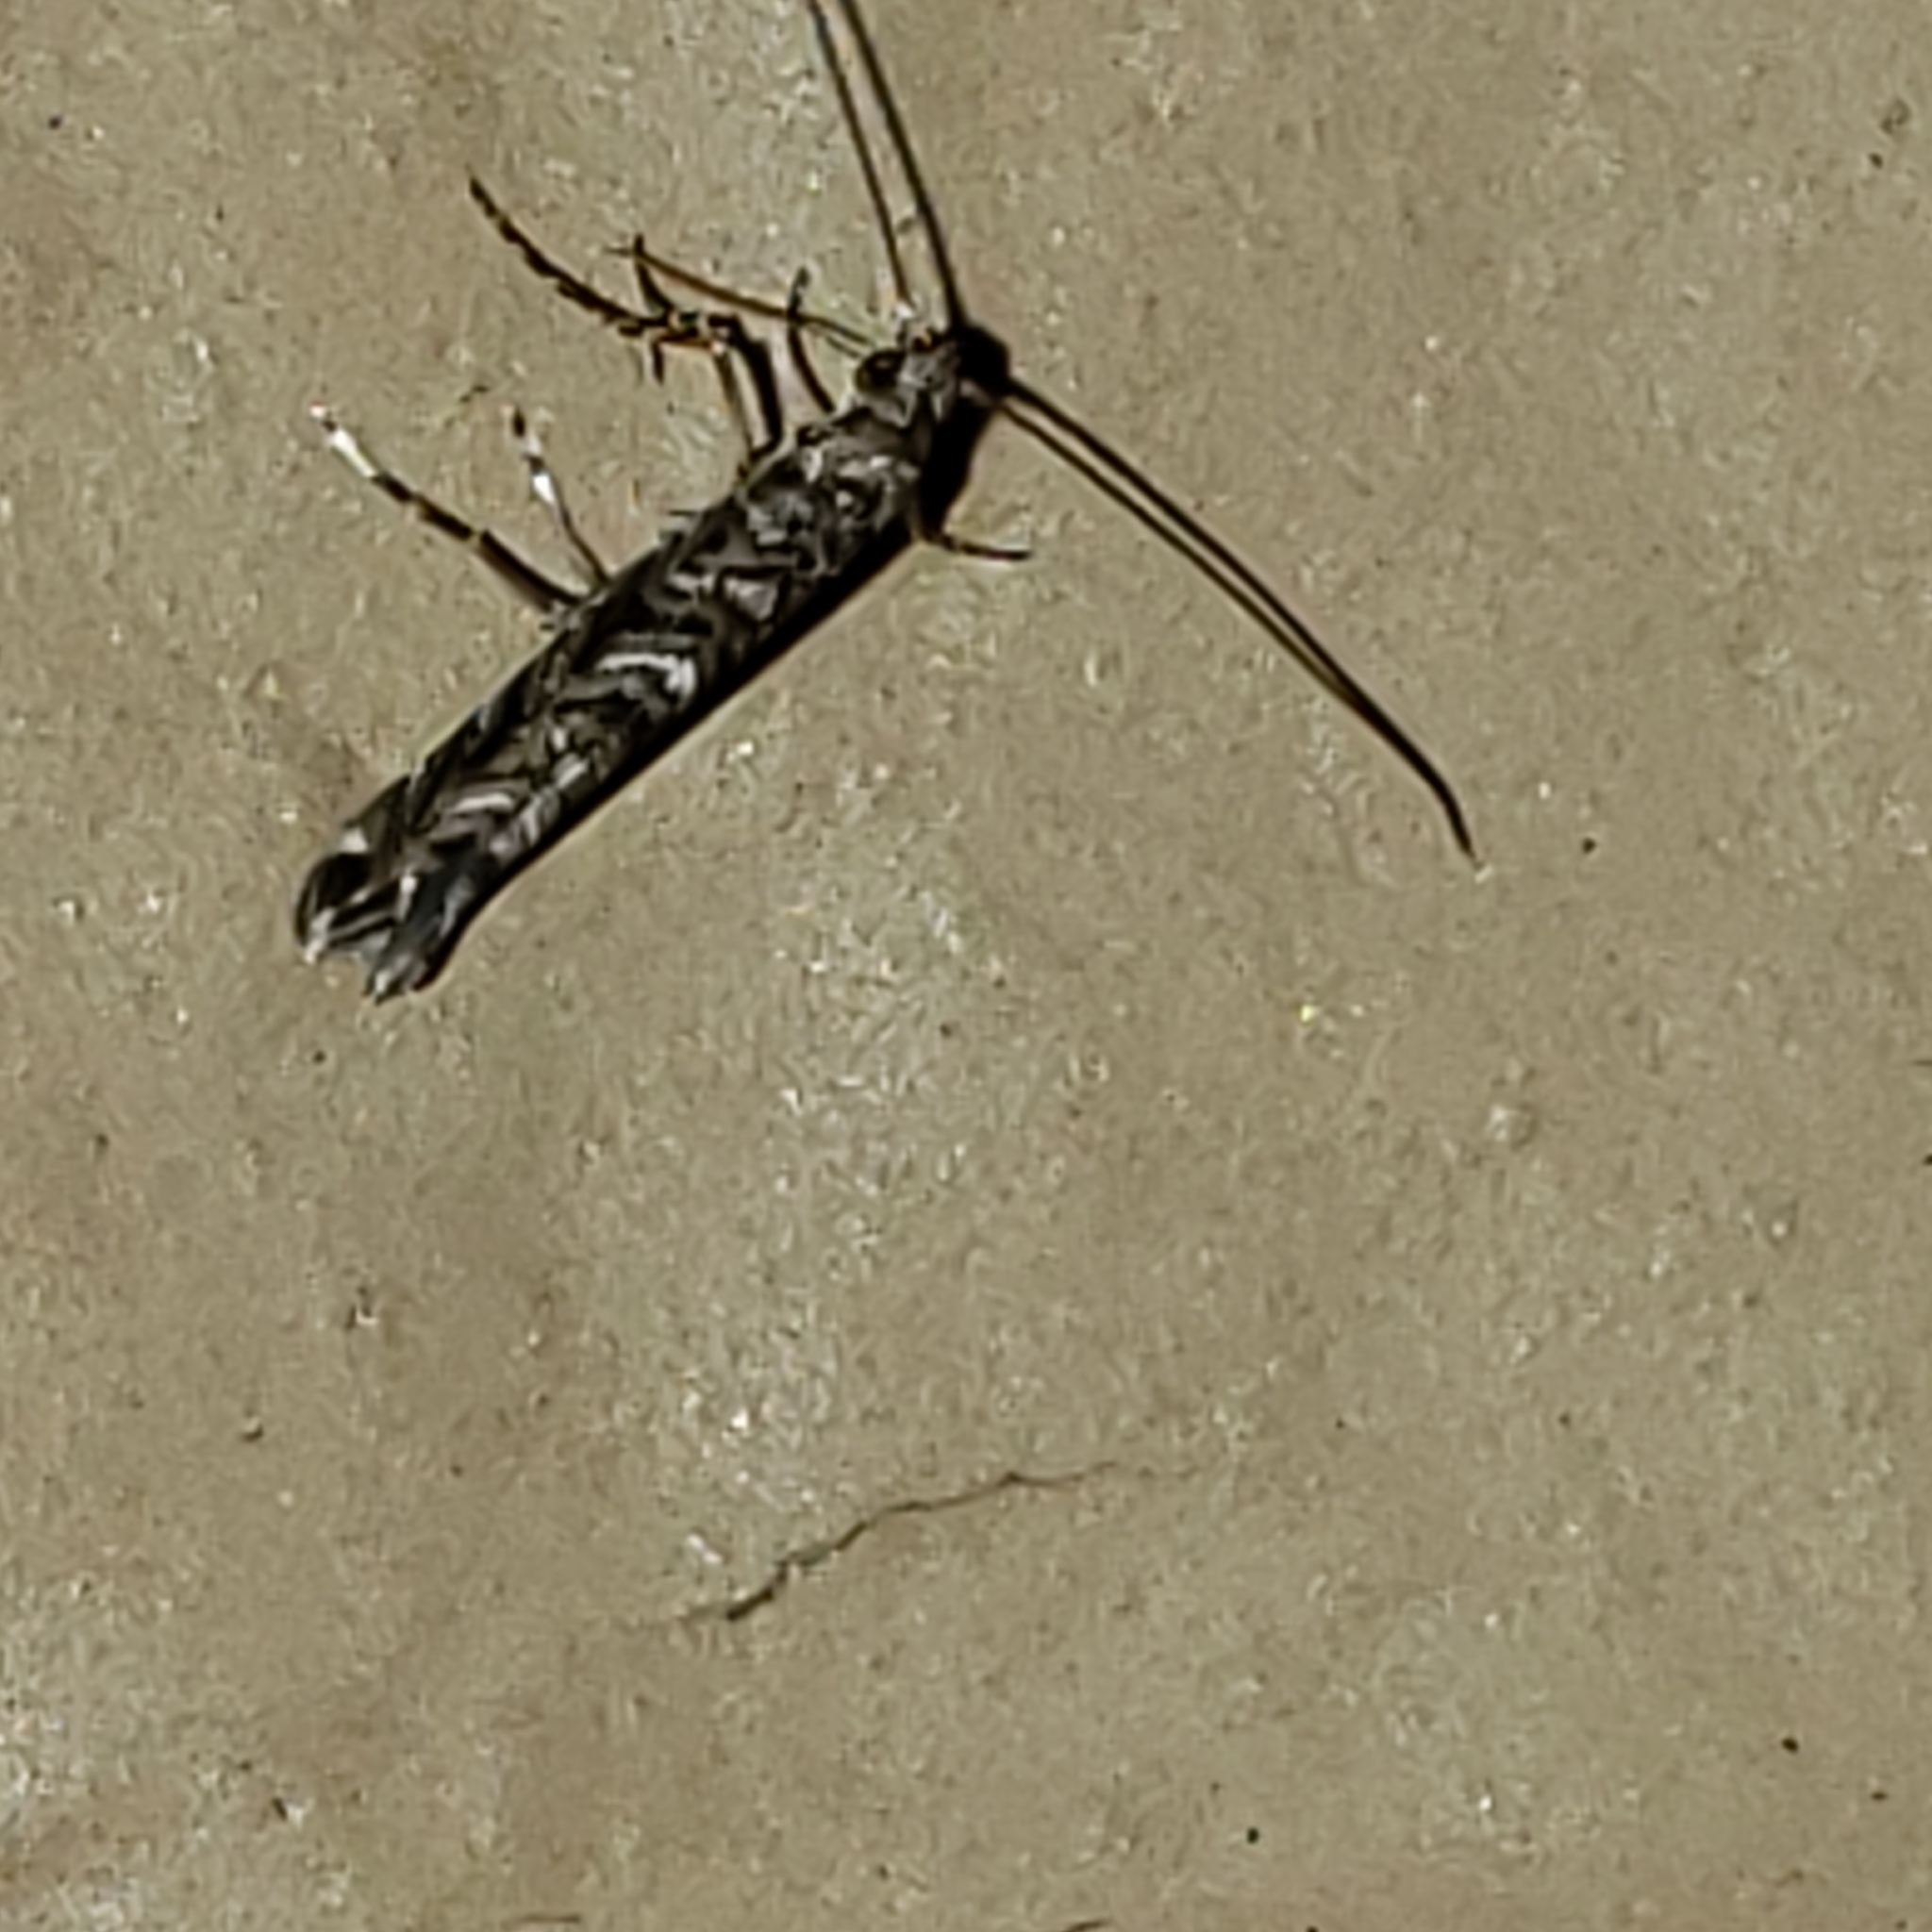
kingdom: Animalia
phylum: Arthropoda
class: Insecta
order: Lepidoptera
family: Gracillariidae
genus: Neurobathra
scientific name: Neurobathra strigifinitella
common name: Finite-channeled leafminer moth
